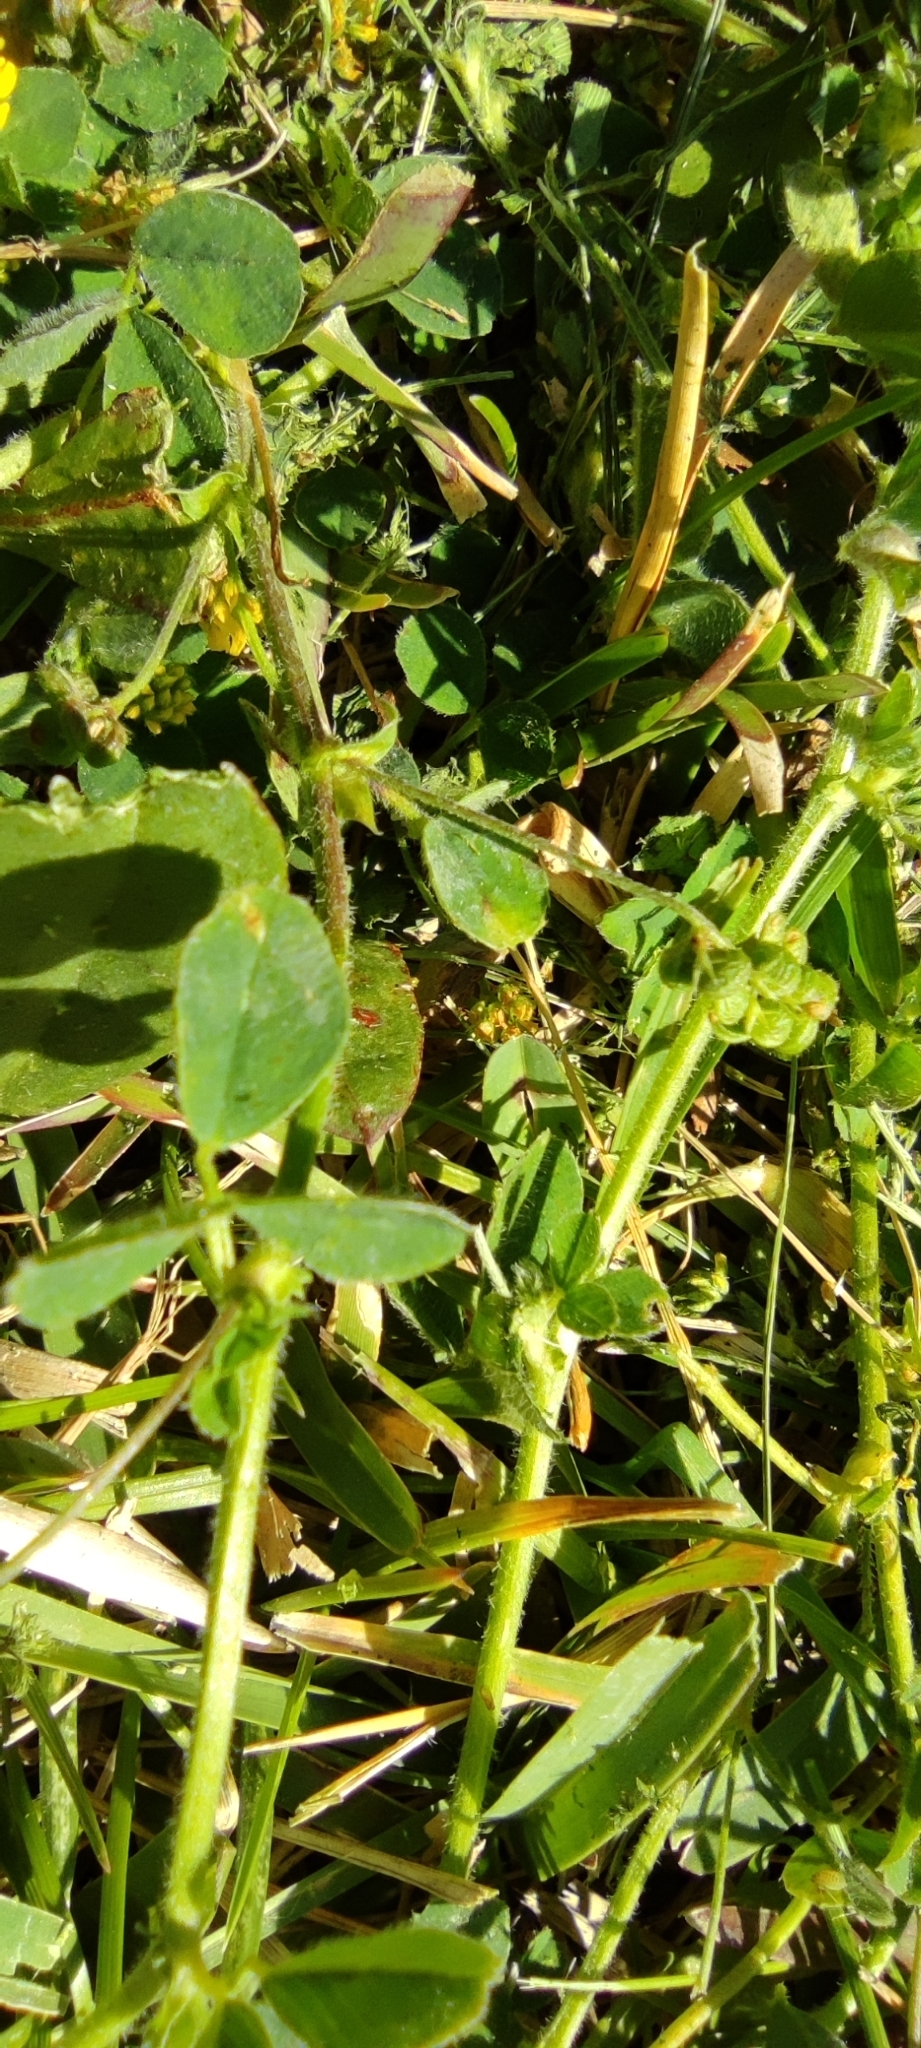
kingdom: Plantae
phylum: Tracheophyta
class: Magnoliopsida
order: Fabales
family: Fabaceae
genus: Medicago
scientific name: Medicago lupulina
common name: Black medick
